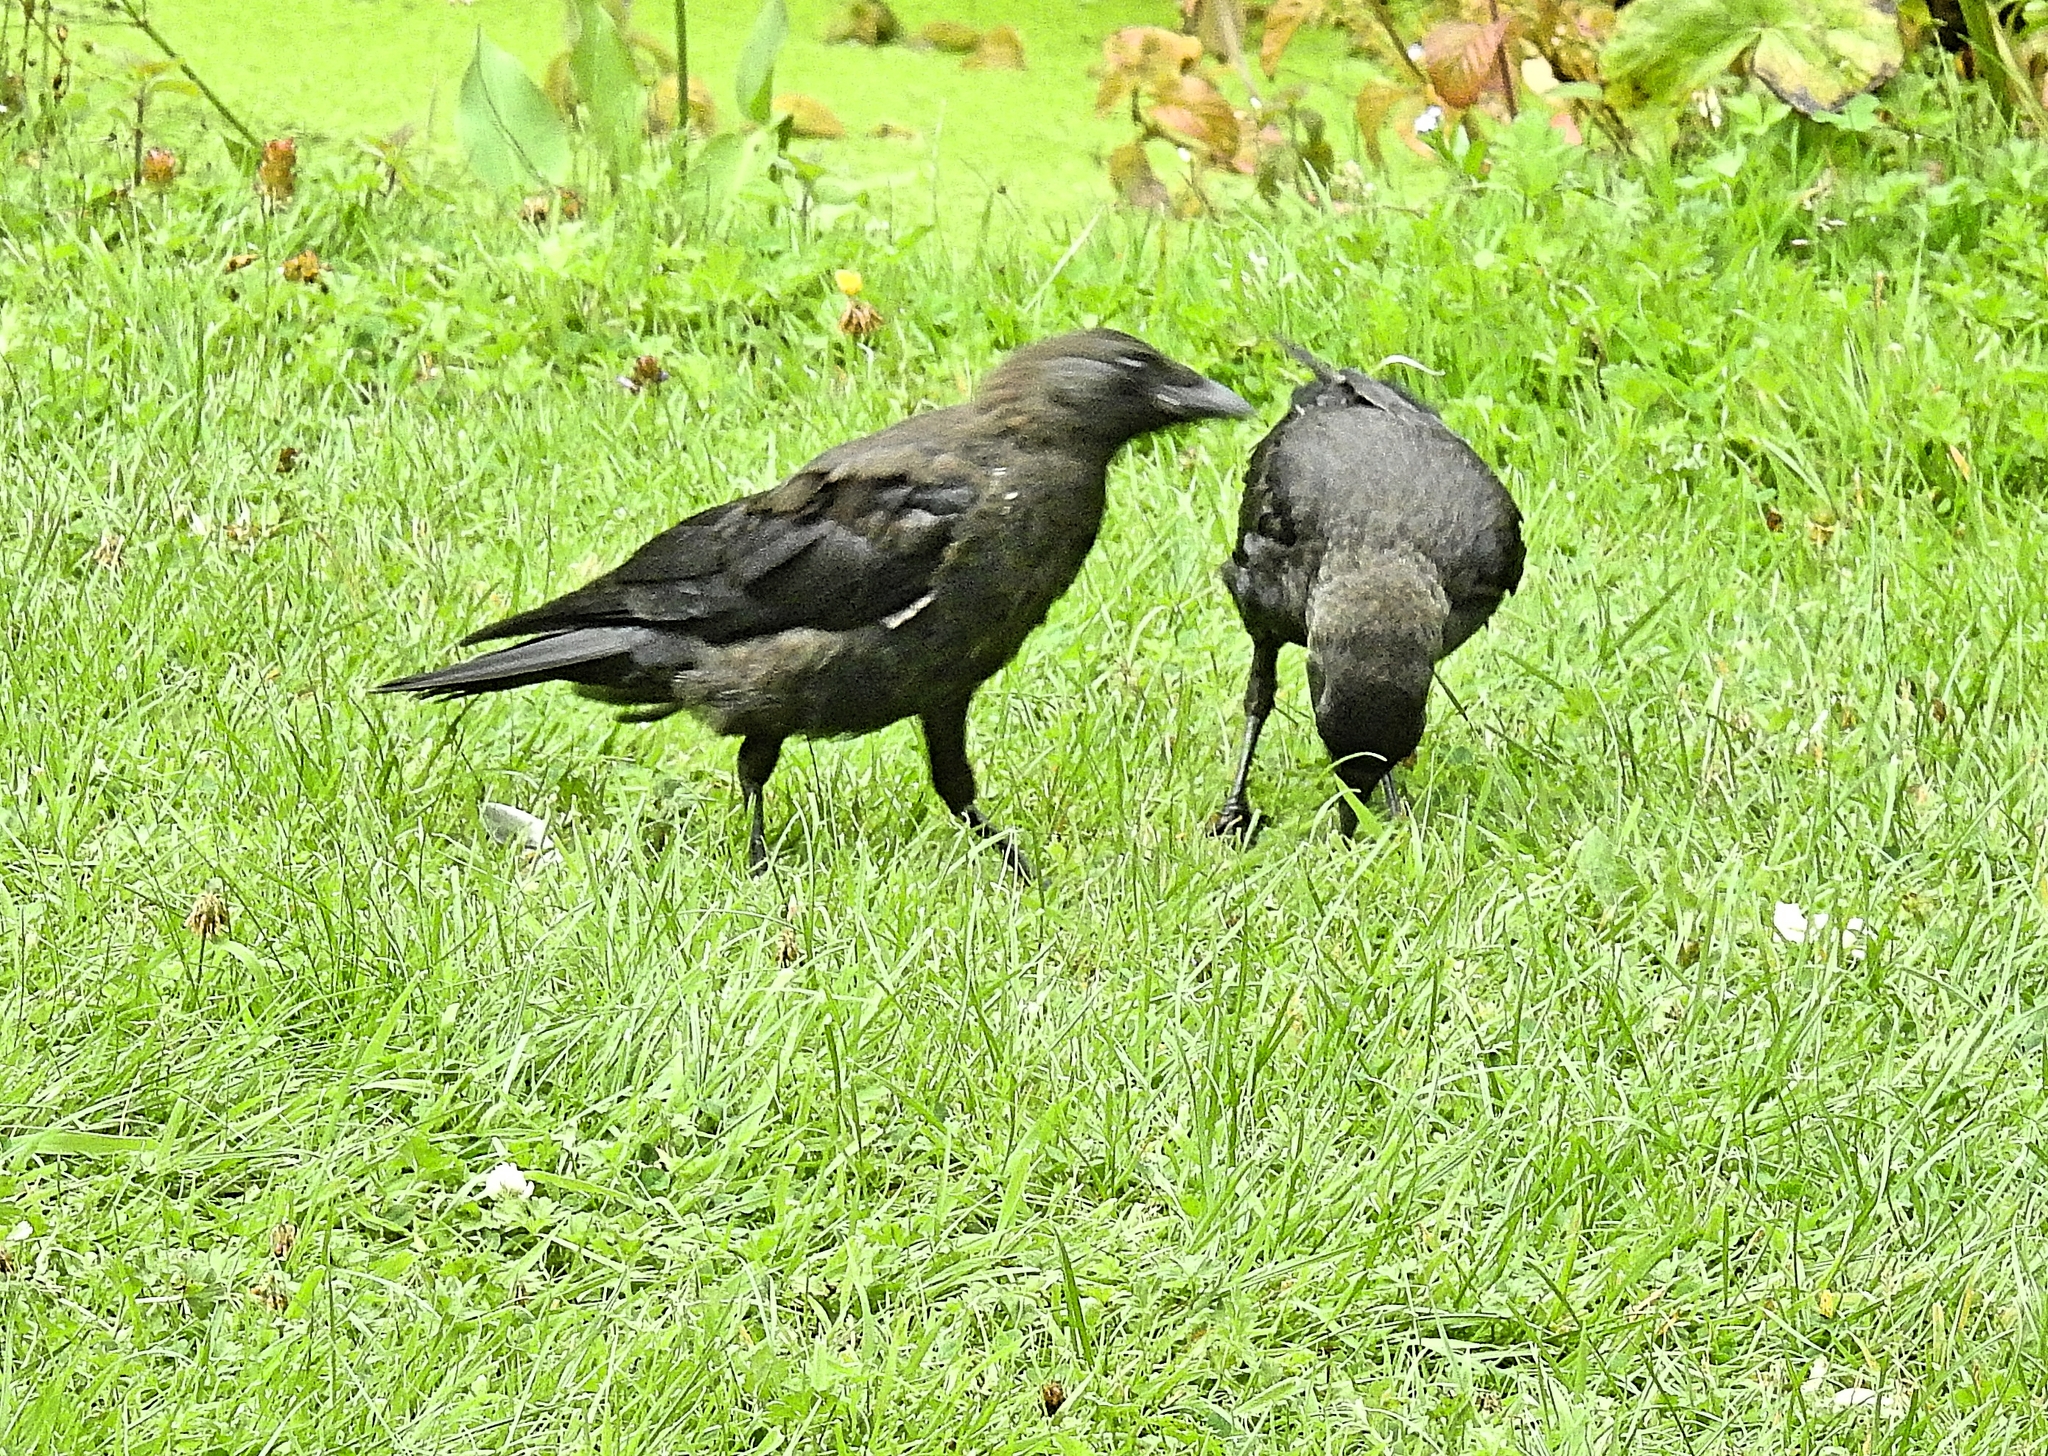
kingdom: Animalia
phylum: Chordata
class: Aves
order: Passeriformes
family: Corvidae
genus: Coloeus
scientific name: Coloeus monedula
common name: Western jackdaw
